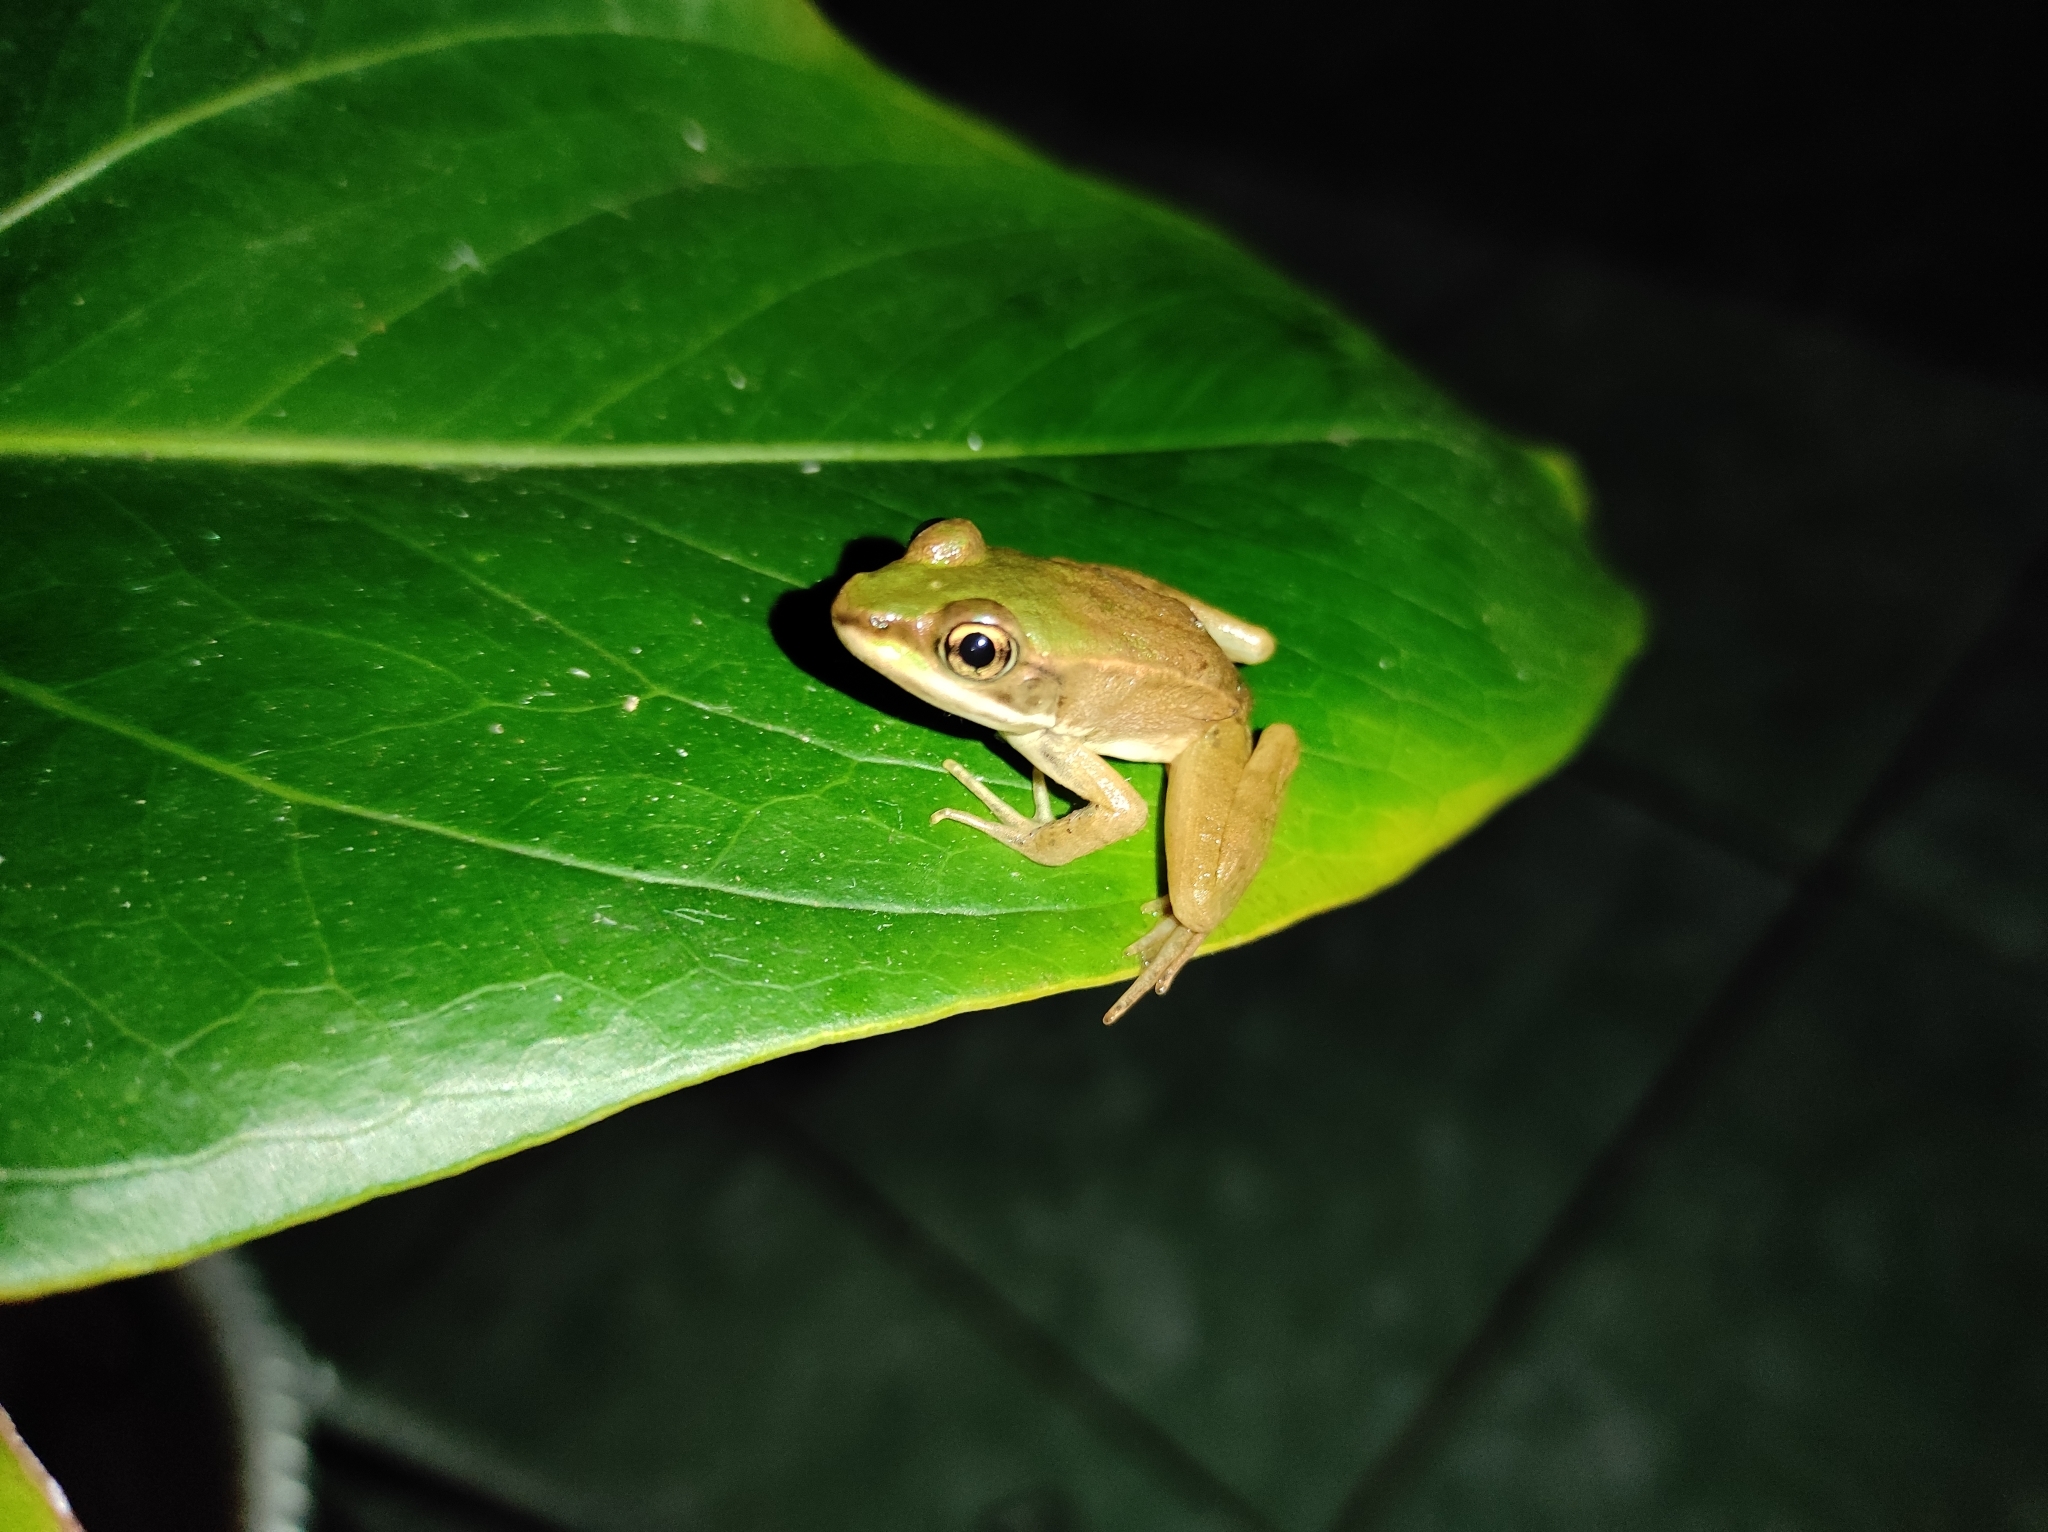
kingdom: Animalia
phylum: Chordata
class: Amphibia
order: Anura
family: Ranidae
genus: Lithobates
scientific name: Lithobates vaillanti
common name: Vaillant's frog
